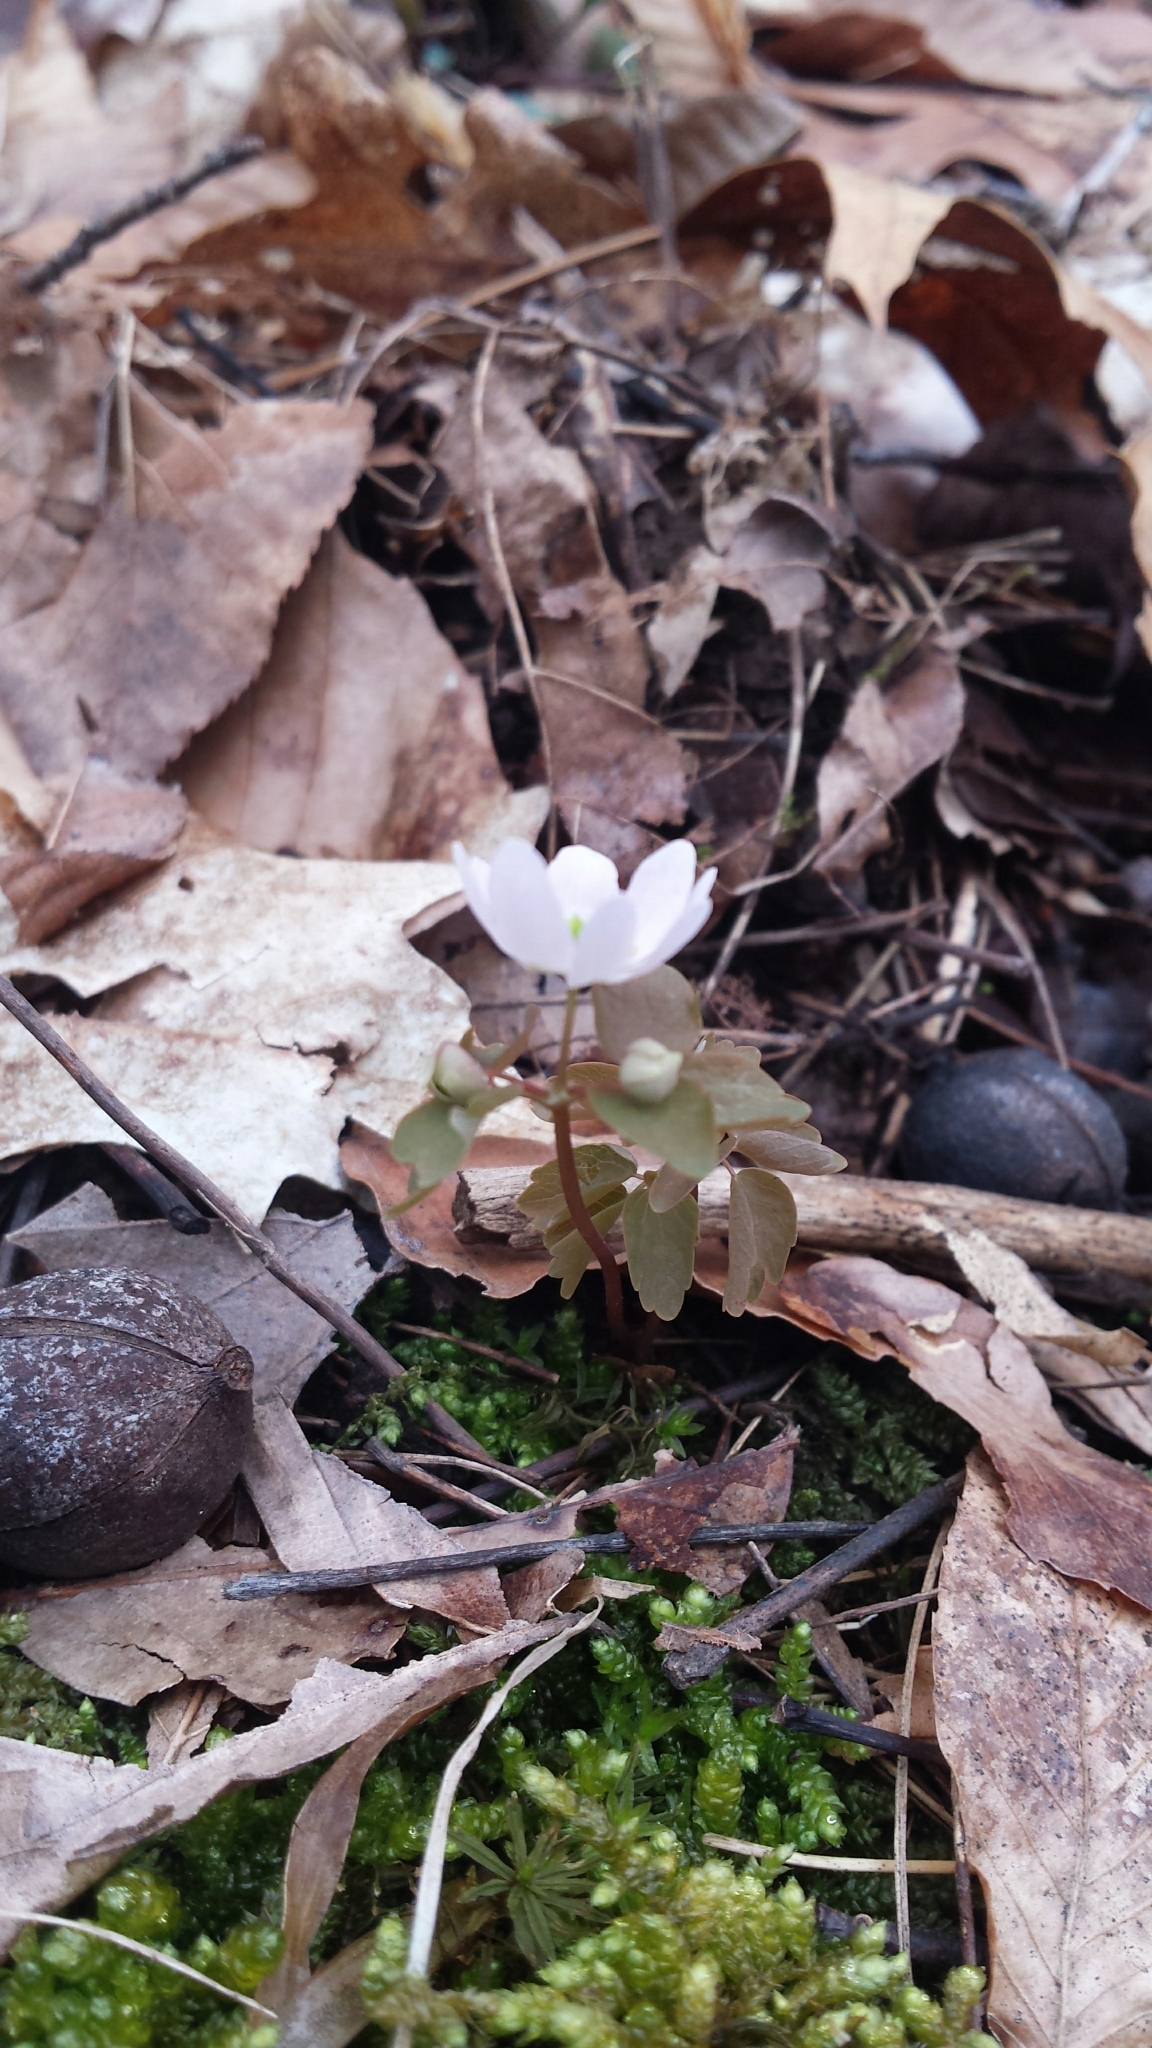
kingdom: Plantae
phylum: Tracheophyta
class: Magnoliopsida
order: Ranunculales
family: Ranunculaceae
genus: Thalictrum
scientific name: Thalictrum thalictroides
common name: Rue-anemone
